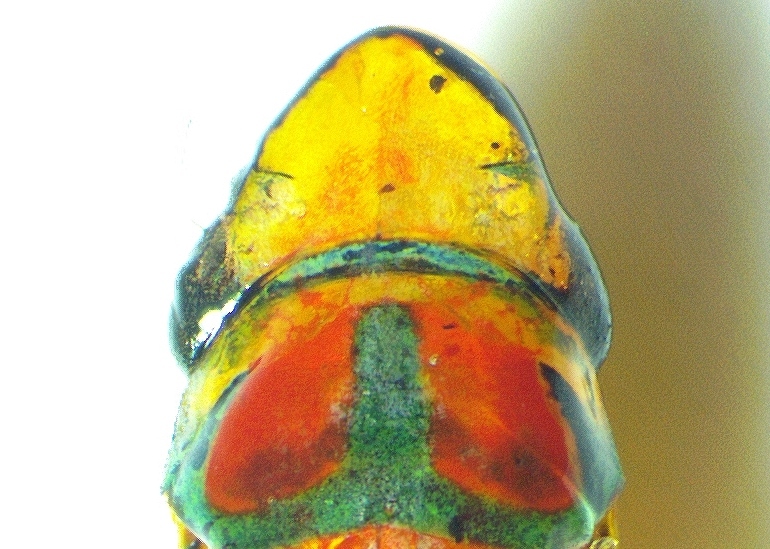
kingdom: Animalia
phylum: Arthropoda
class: Insecta
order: Hemiptera
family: Cicadellidae
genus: Graphocephala
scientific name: Graphocephala coccinea
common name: Candy-striped leafhopper
